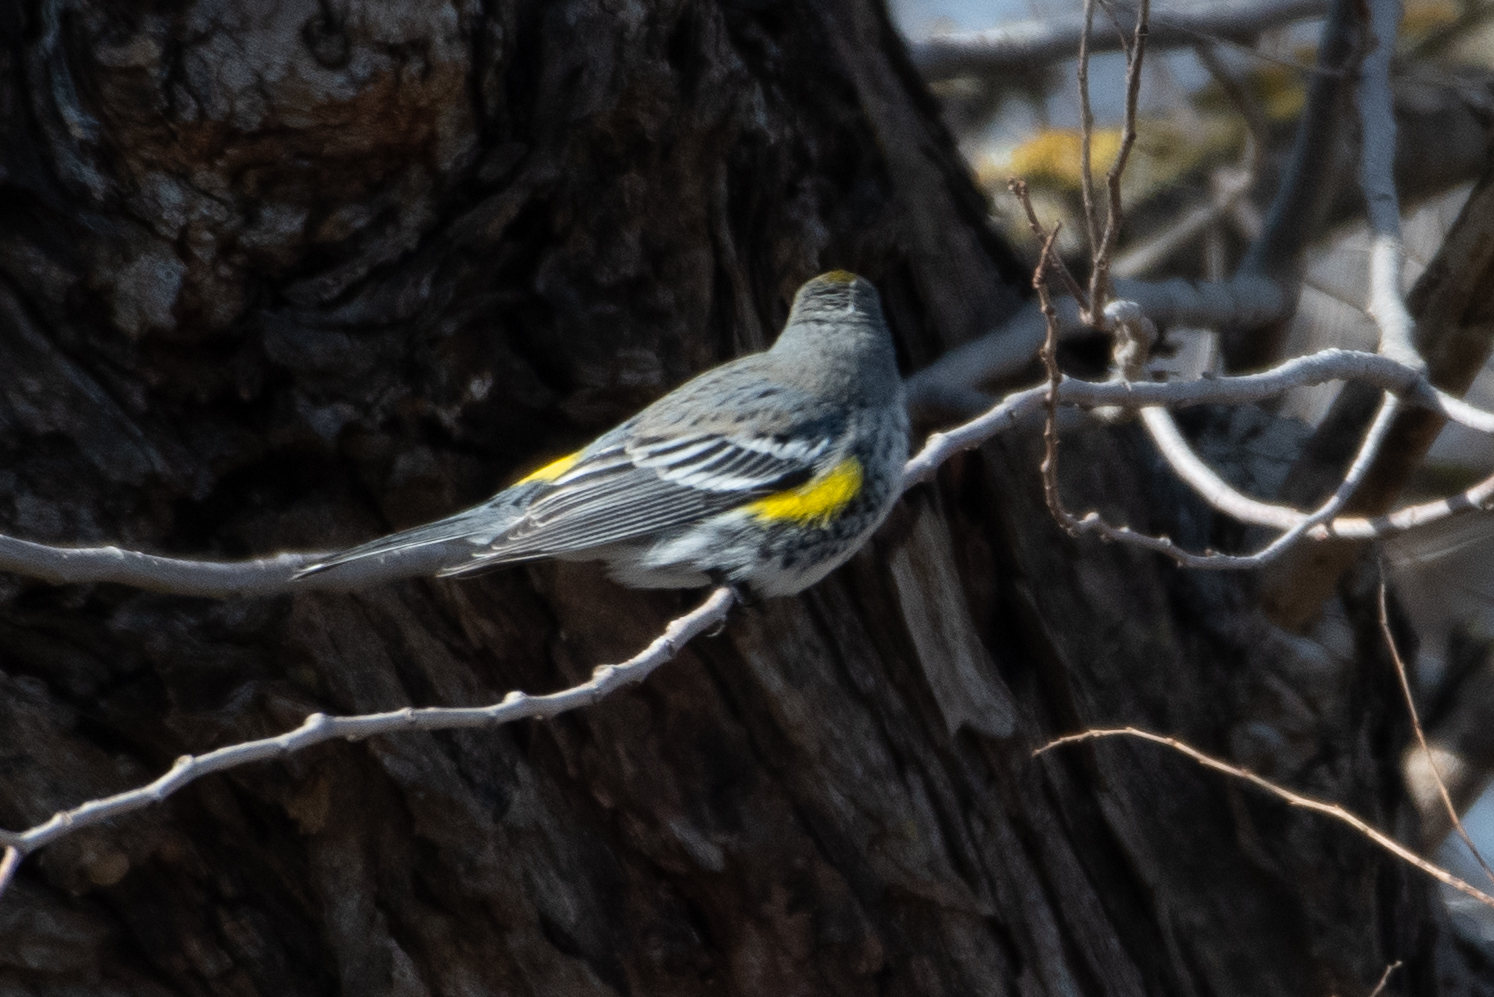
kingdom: Animalia
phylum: Chordata
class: Aves
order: Passeriformes
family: Parulidae
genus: Setophaga
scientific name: Setophaga coronata
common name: Myrtle warbler
